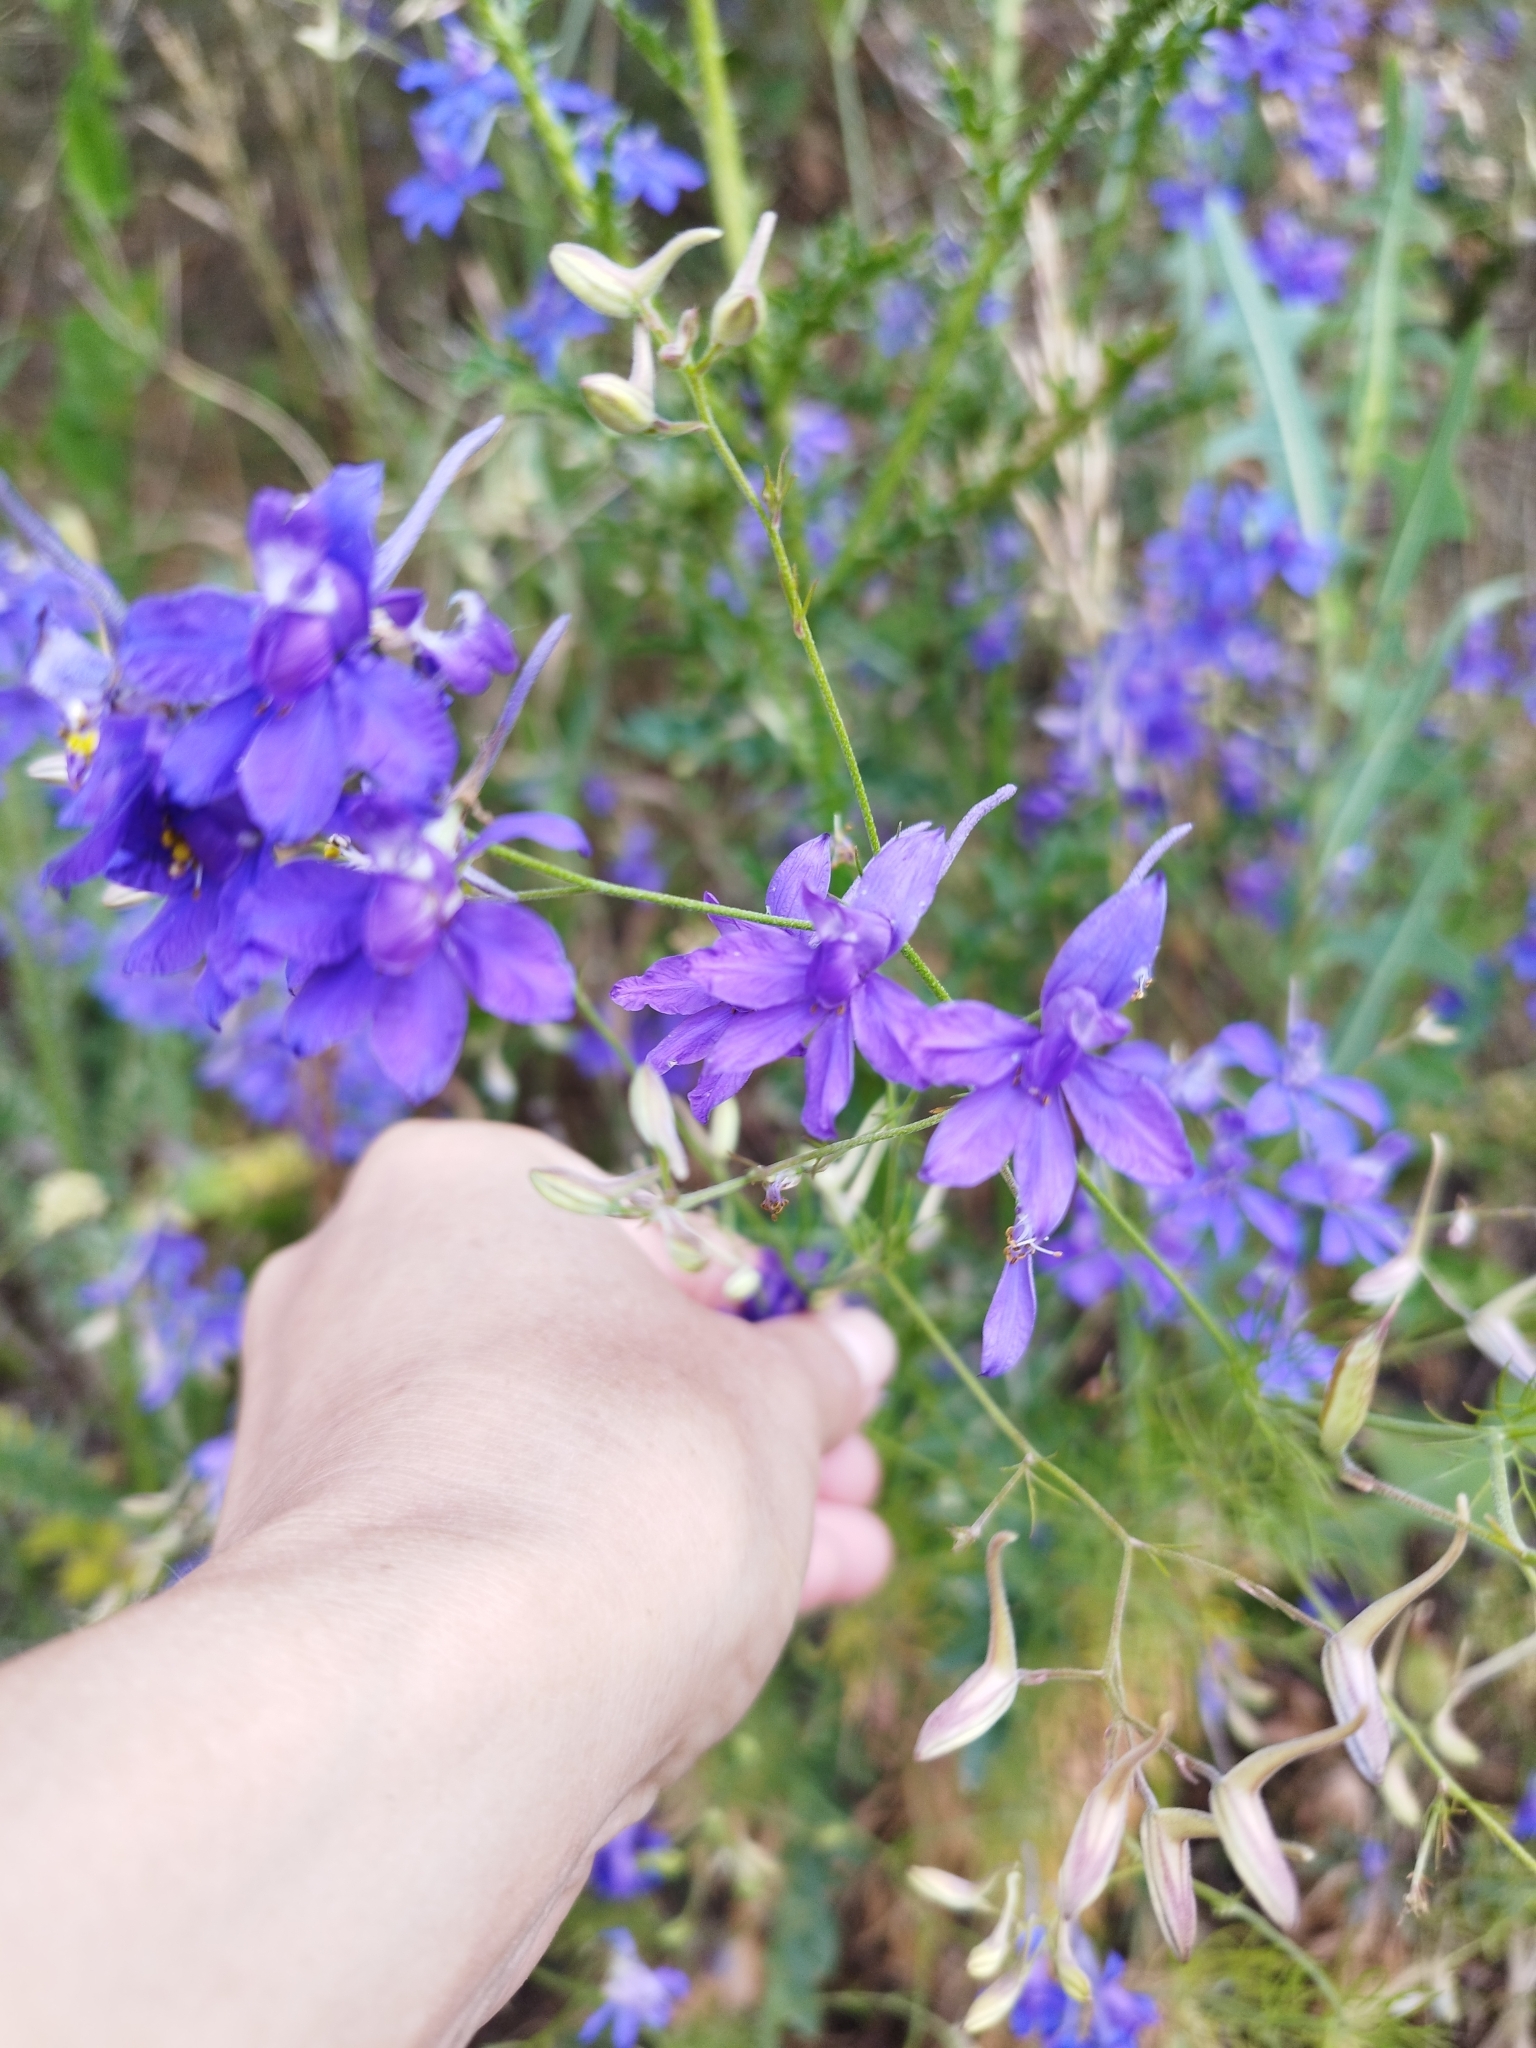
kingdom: Plantae
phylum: Tracheophyta
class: Magnoliopsida
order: Ranunculales
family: Ranunculaceae
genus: Delphinium
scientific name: Delphinium consolida
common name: Branching larkspur
